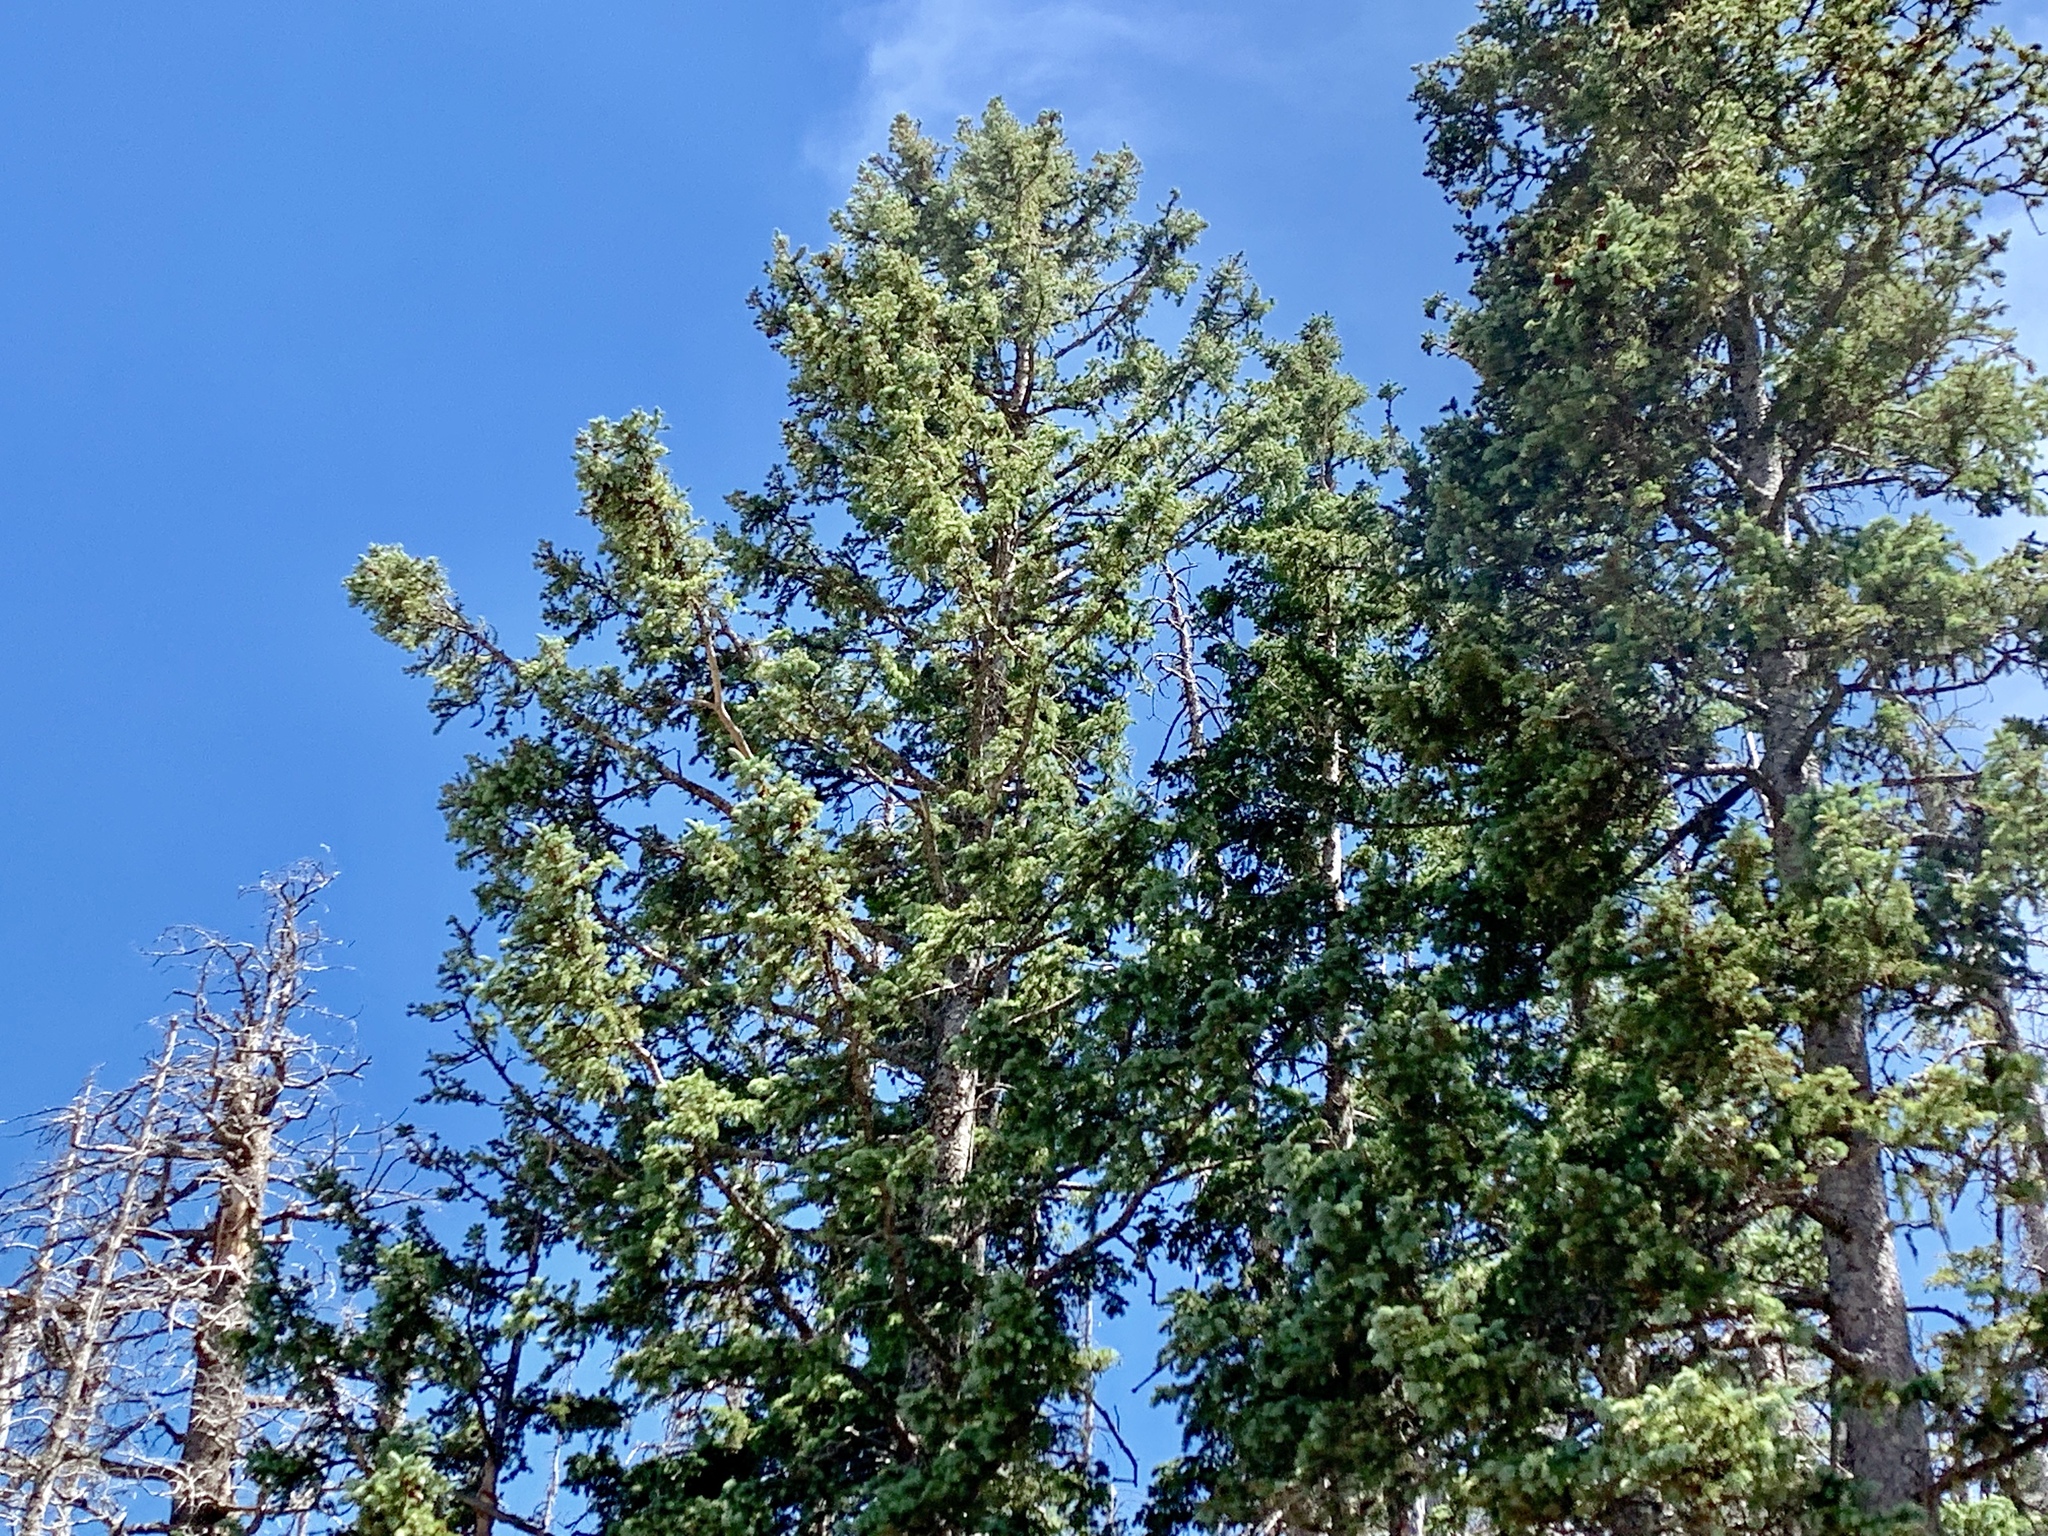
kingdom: Plantae
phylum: Tracheophyta
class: Magnoliopsida
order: Malpighiales
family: Salicaceae
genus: Populus
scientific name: Populus tremuloides
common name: Quaking aspen
